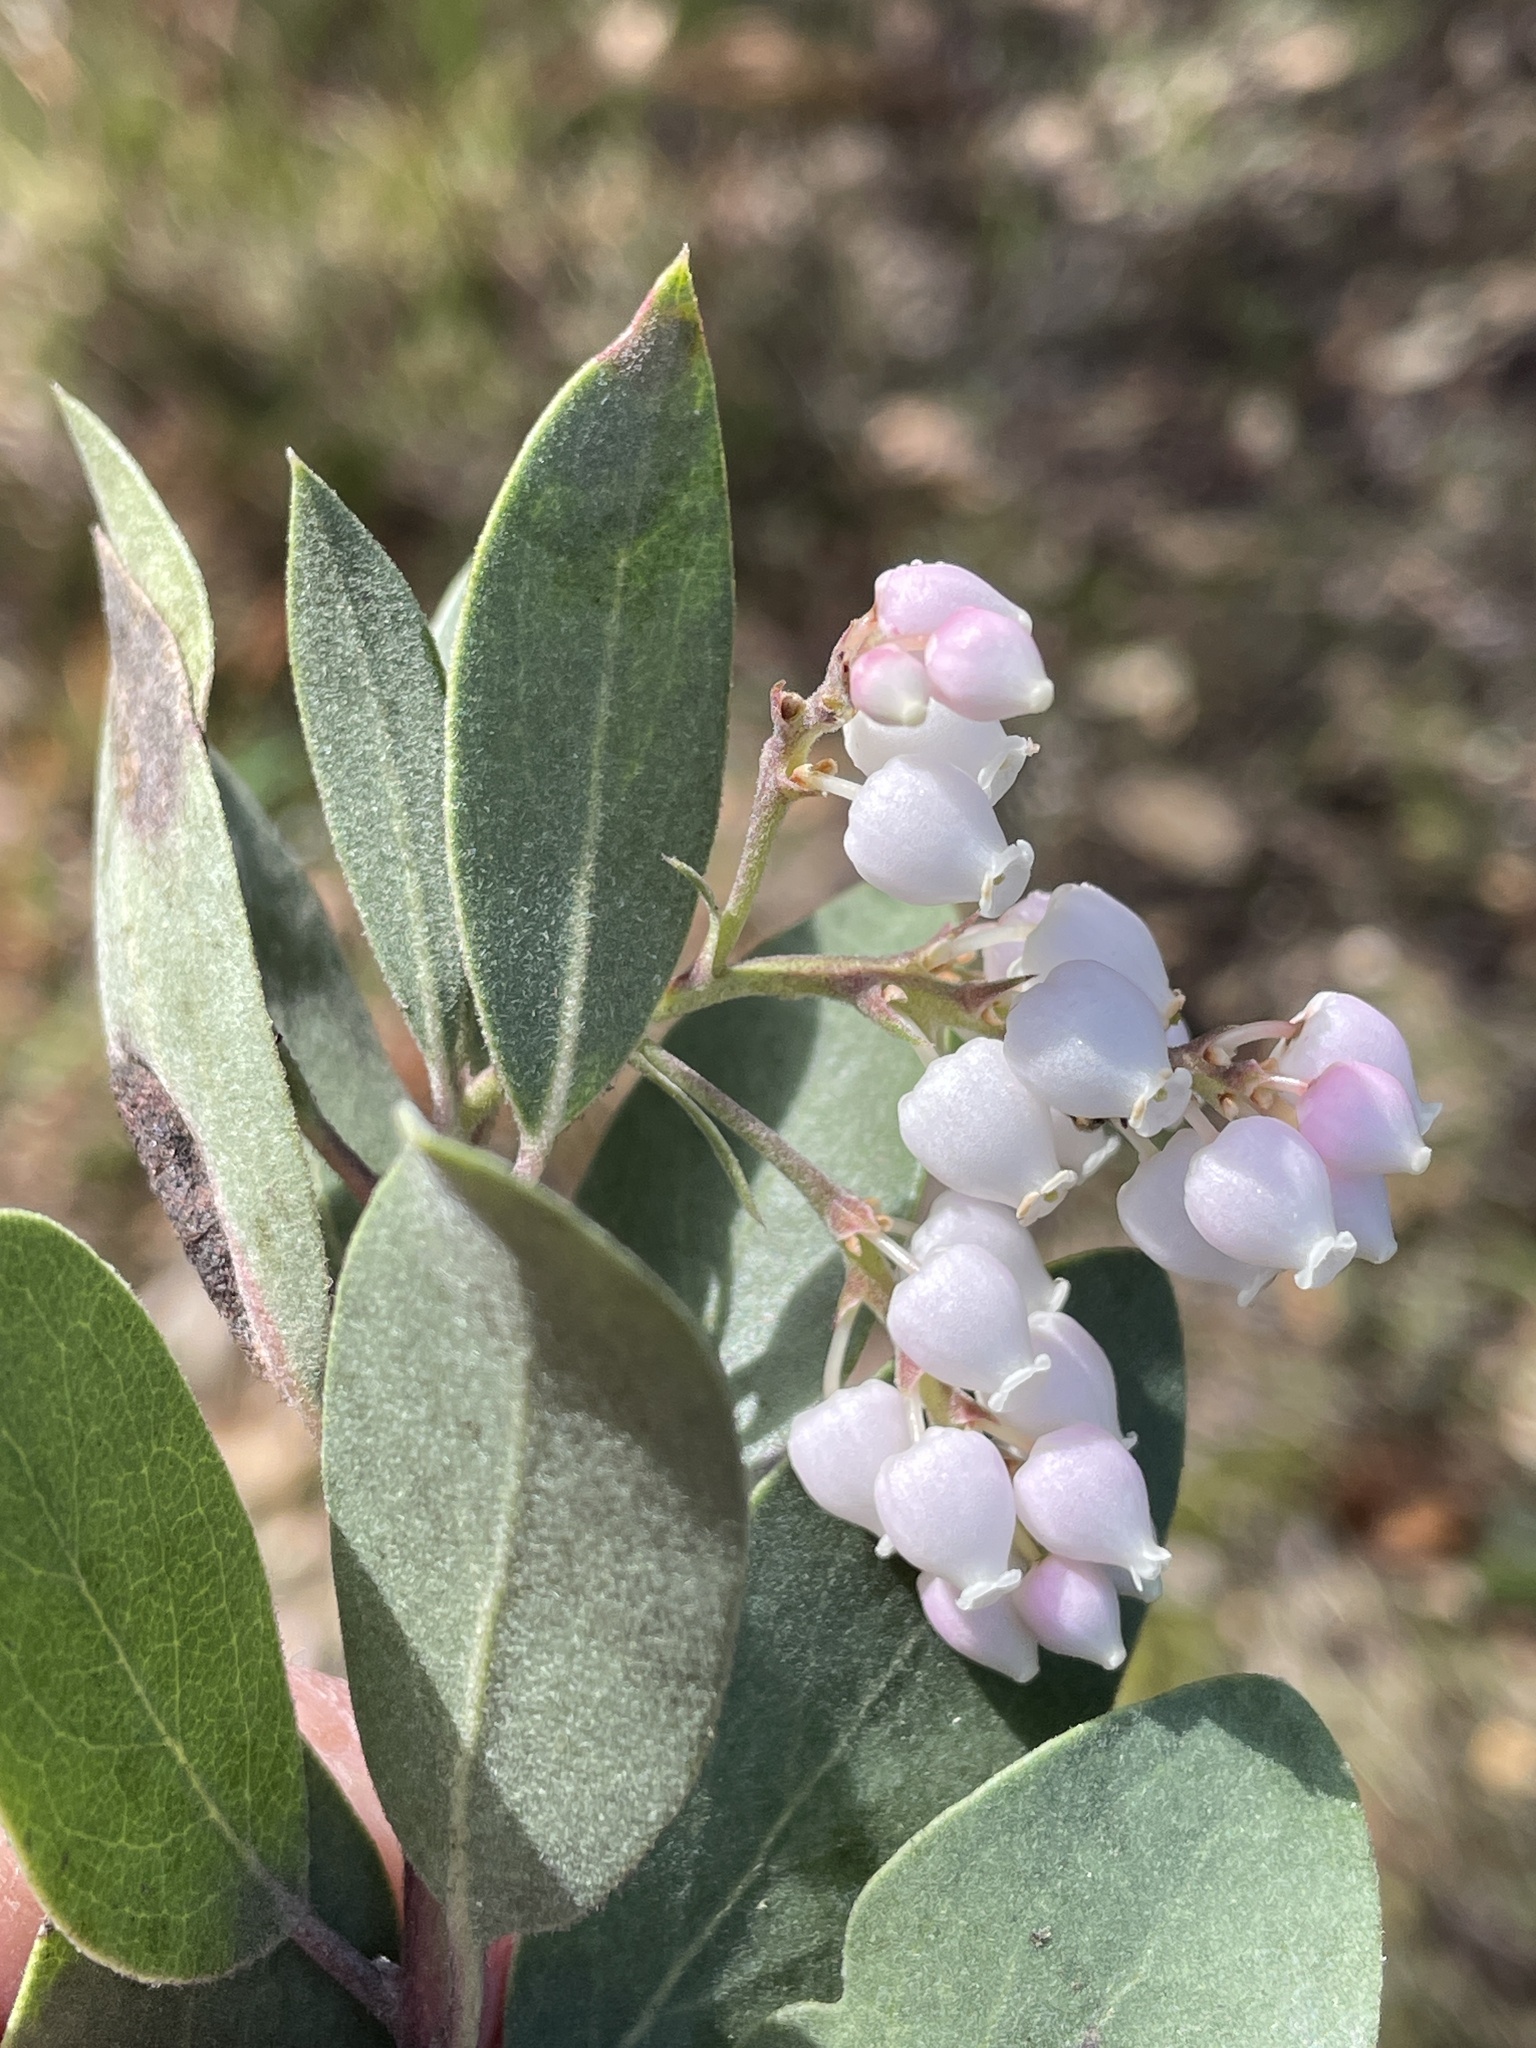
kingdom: Plantae
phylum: Tracheophyta
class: Magnoliopsida
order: Ericales
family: Ericaceae
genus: Arctostaphylos
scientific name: Arctostaphylos manzanita
